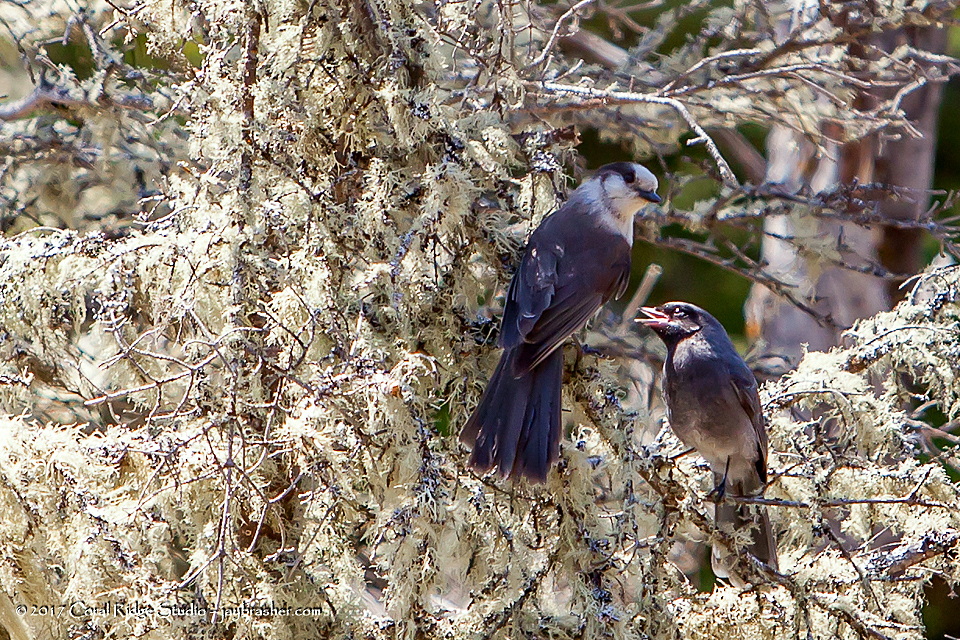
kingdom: Animalia
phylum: Chordata
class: Aves
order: Passeriformes
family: Corvidae
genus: Perisoreus
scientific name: Perisoreus canadensis
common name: Gray jay
